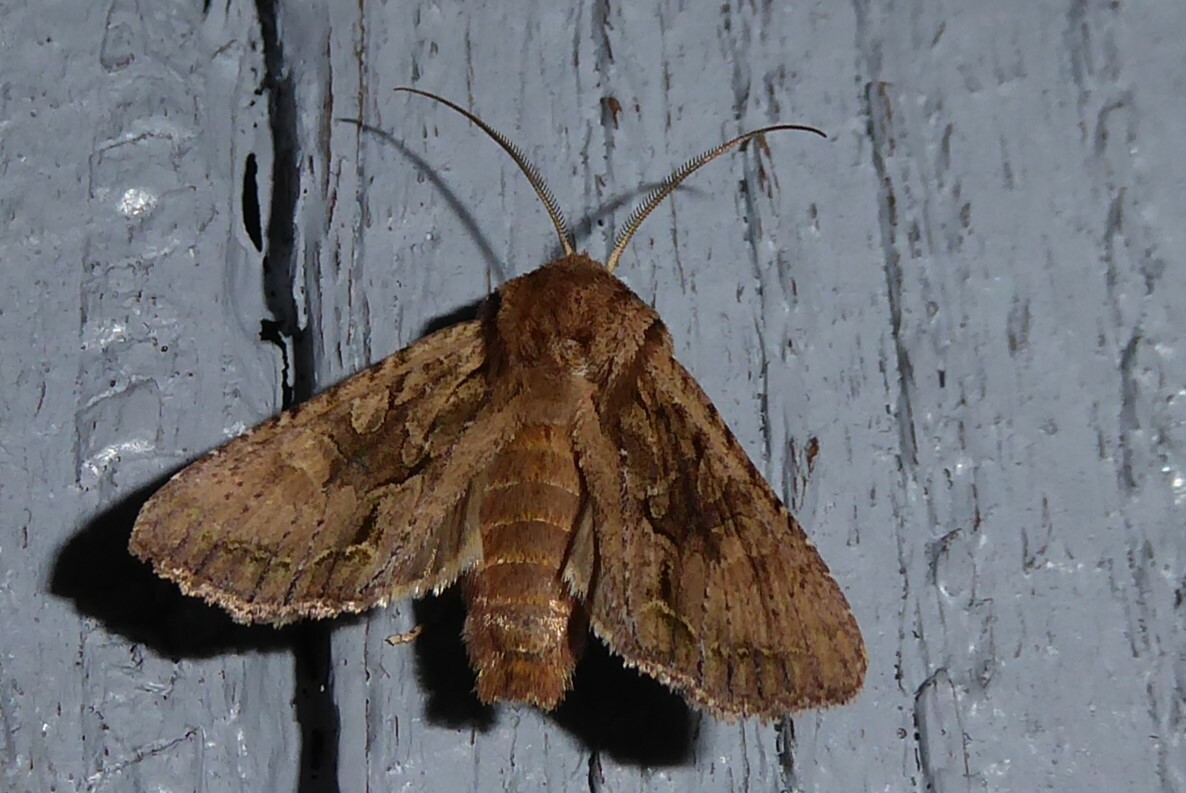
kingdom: Animalia
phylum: Arthropoda
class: Insecta
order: Lepidoptera
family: Noctuidae
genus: Ichneutica
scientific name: Ichneutica
